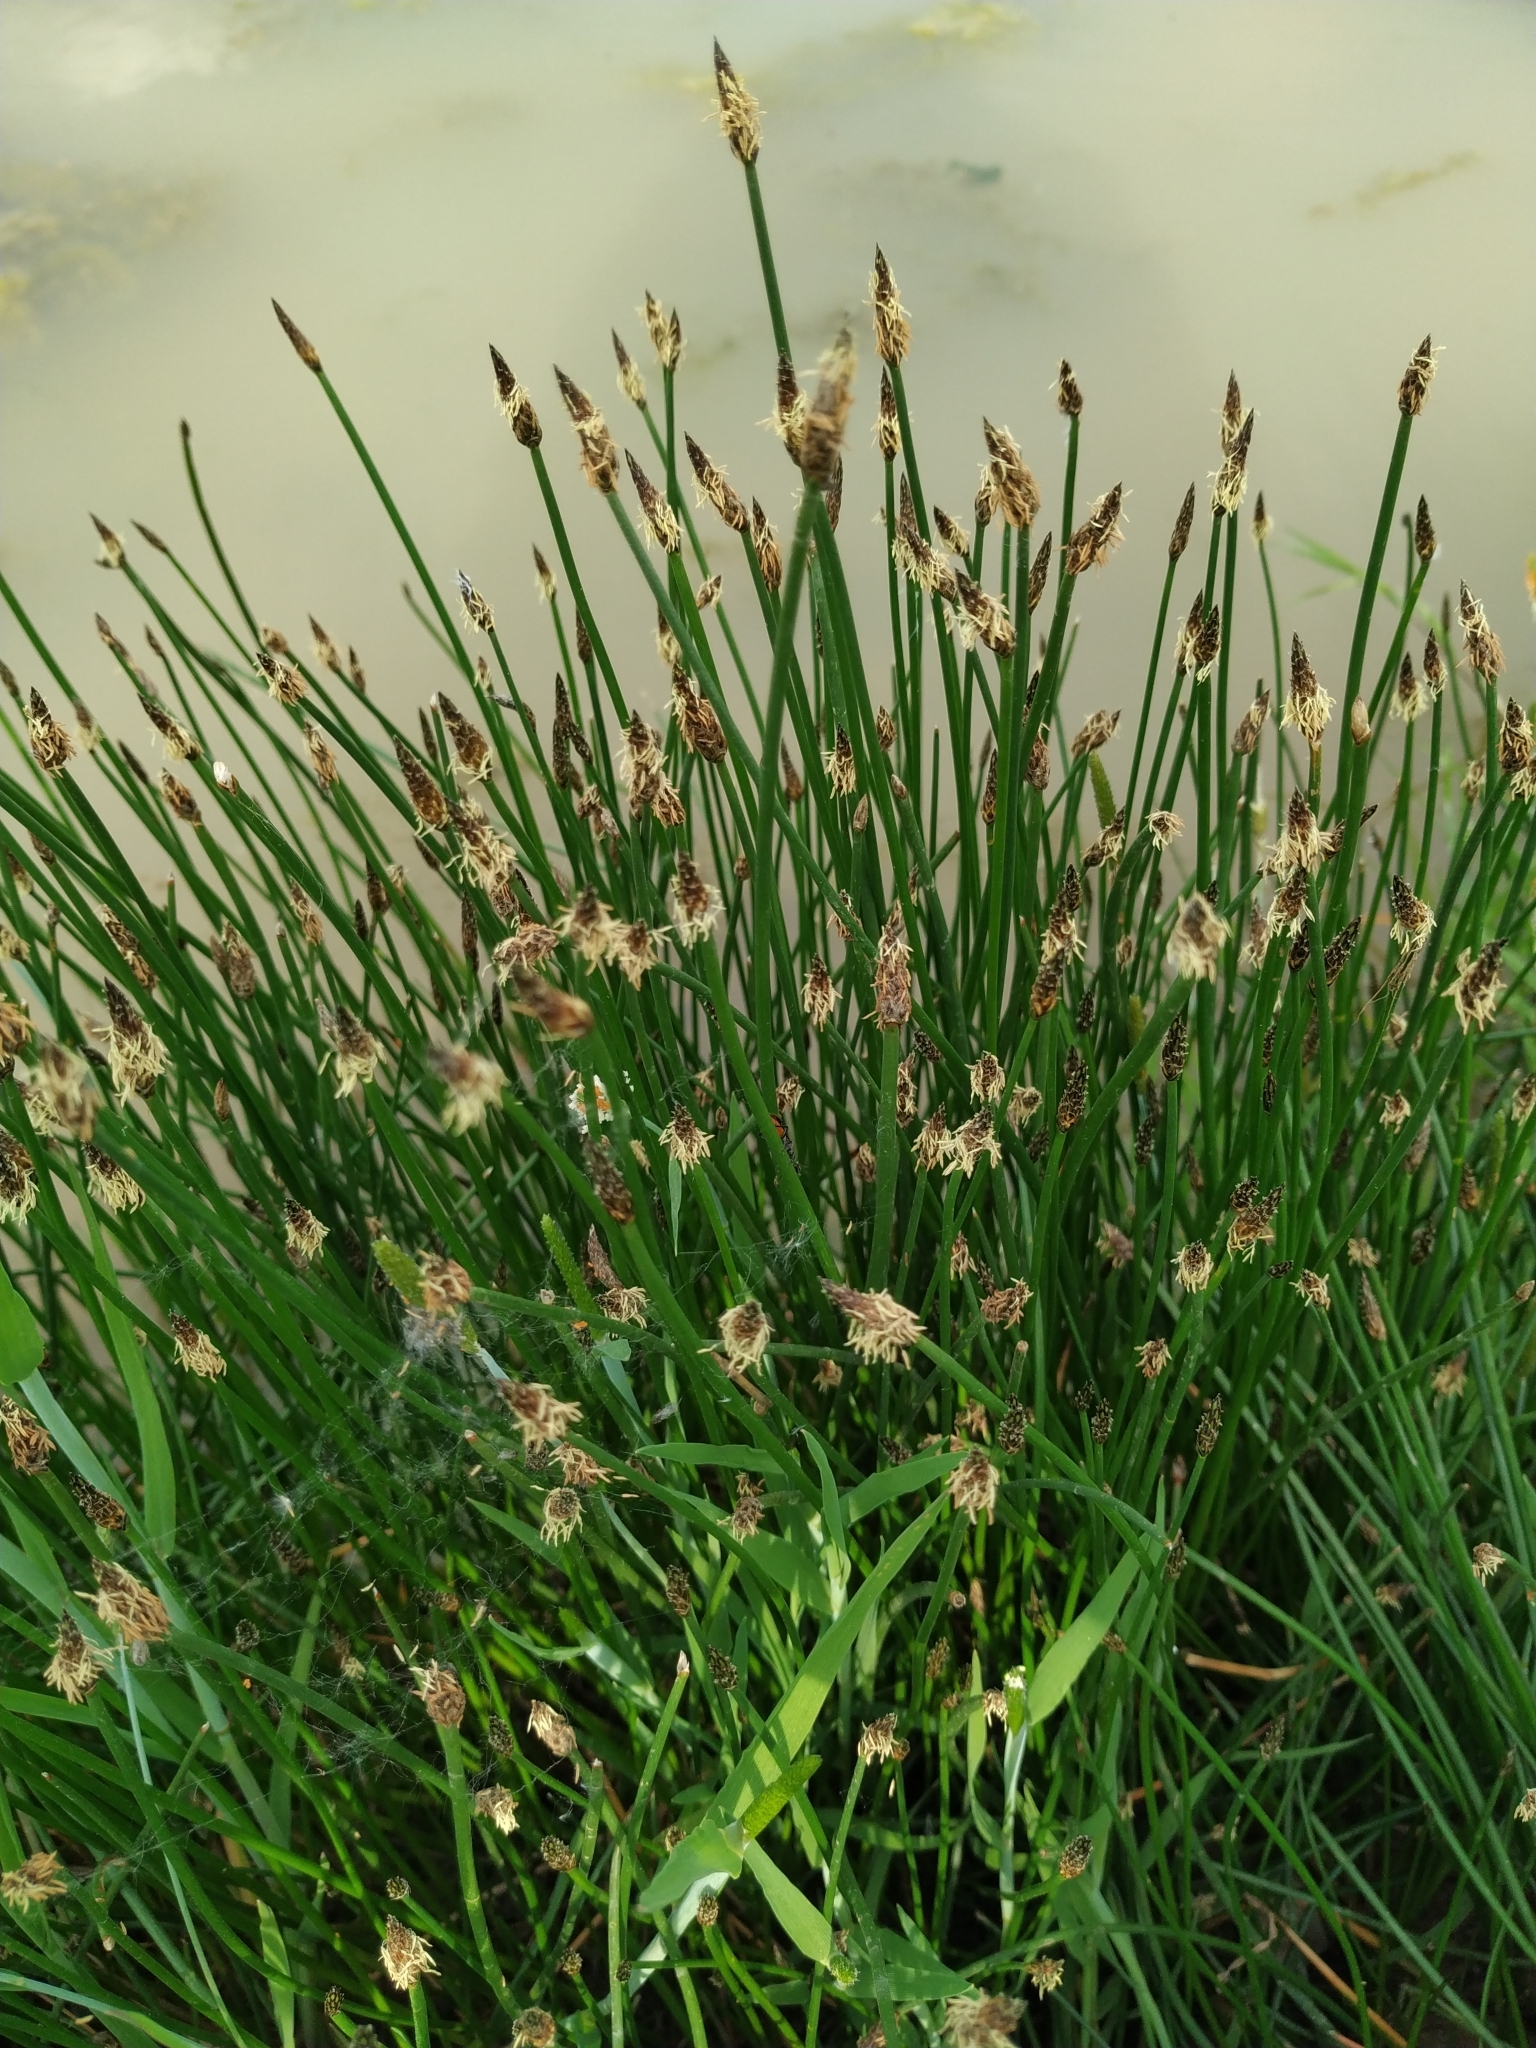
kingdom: Plantae
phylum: Tracheophyta
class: Liliopsida
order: Poales
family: Cyperaceae
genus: Eleocharis
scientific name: Eleocharis palustris
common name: Common spike-rush
